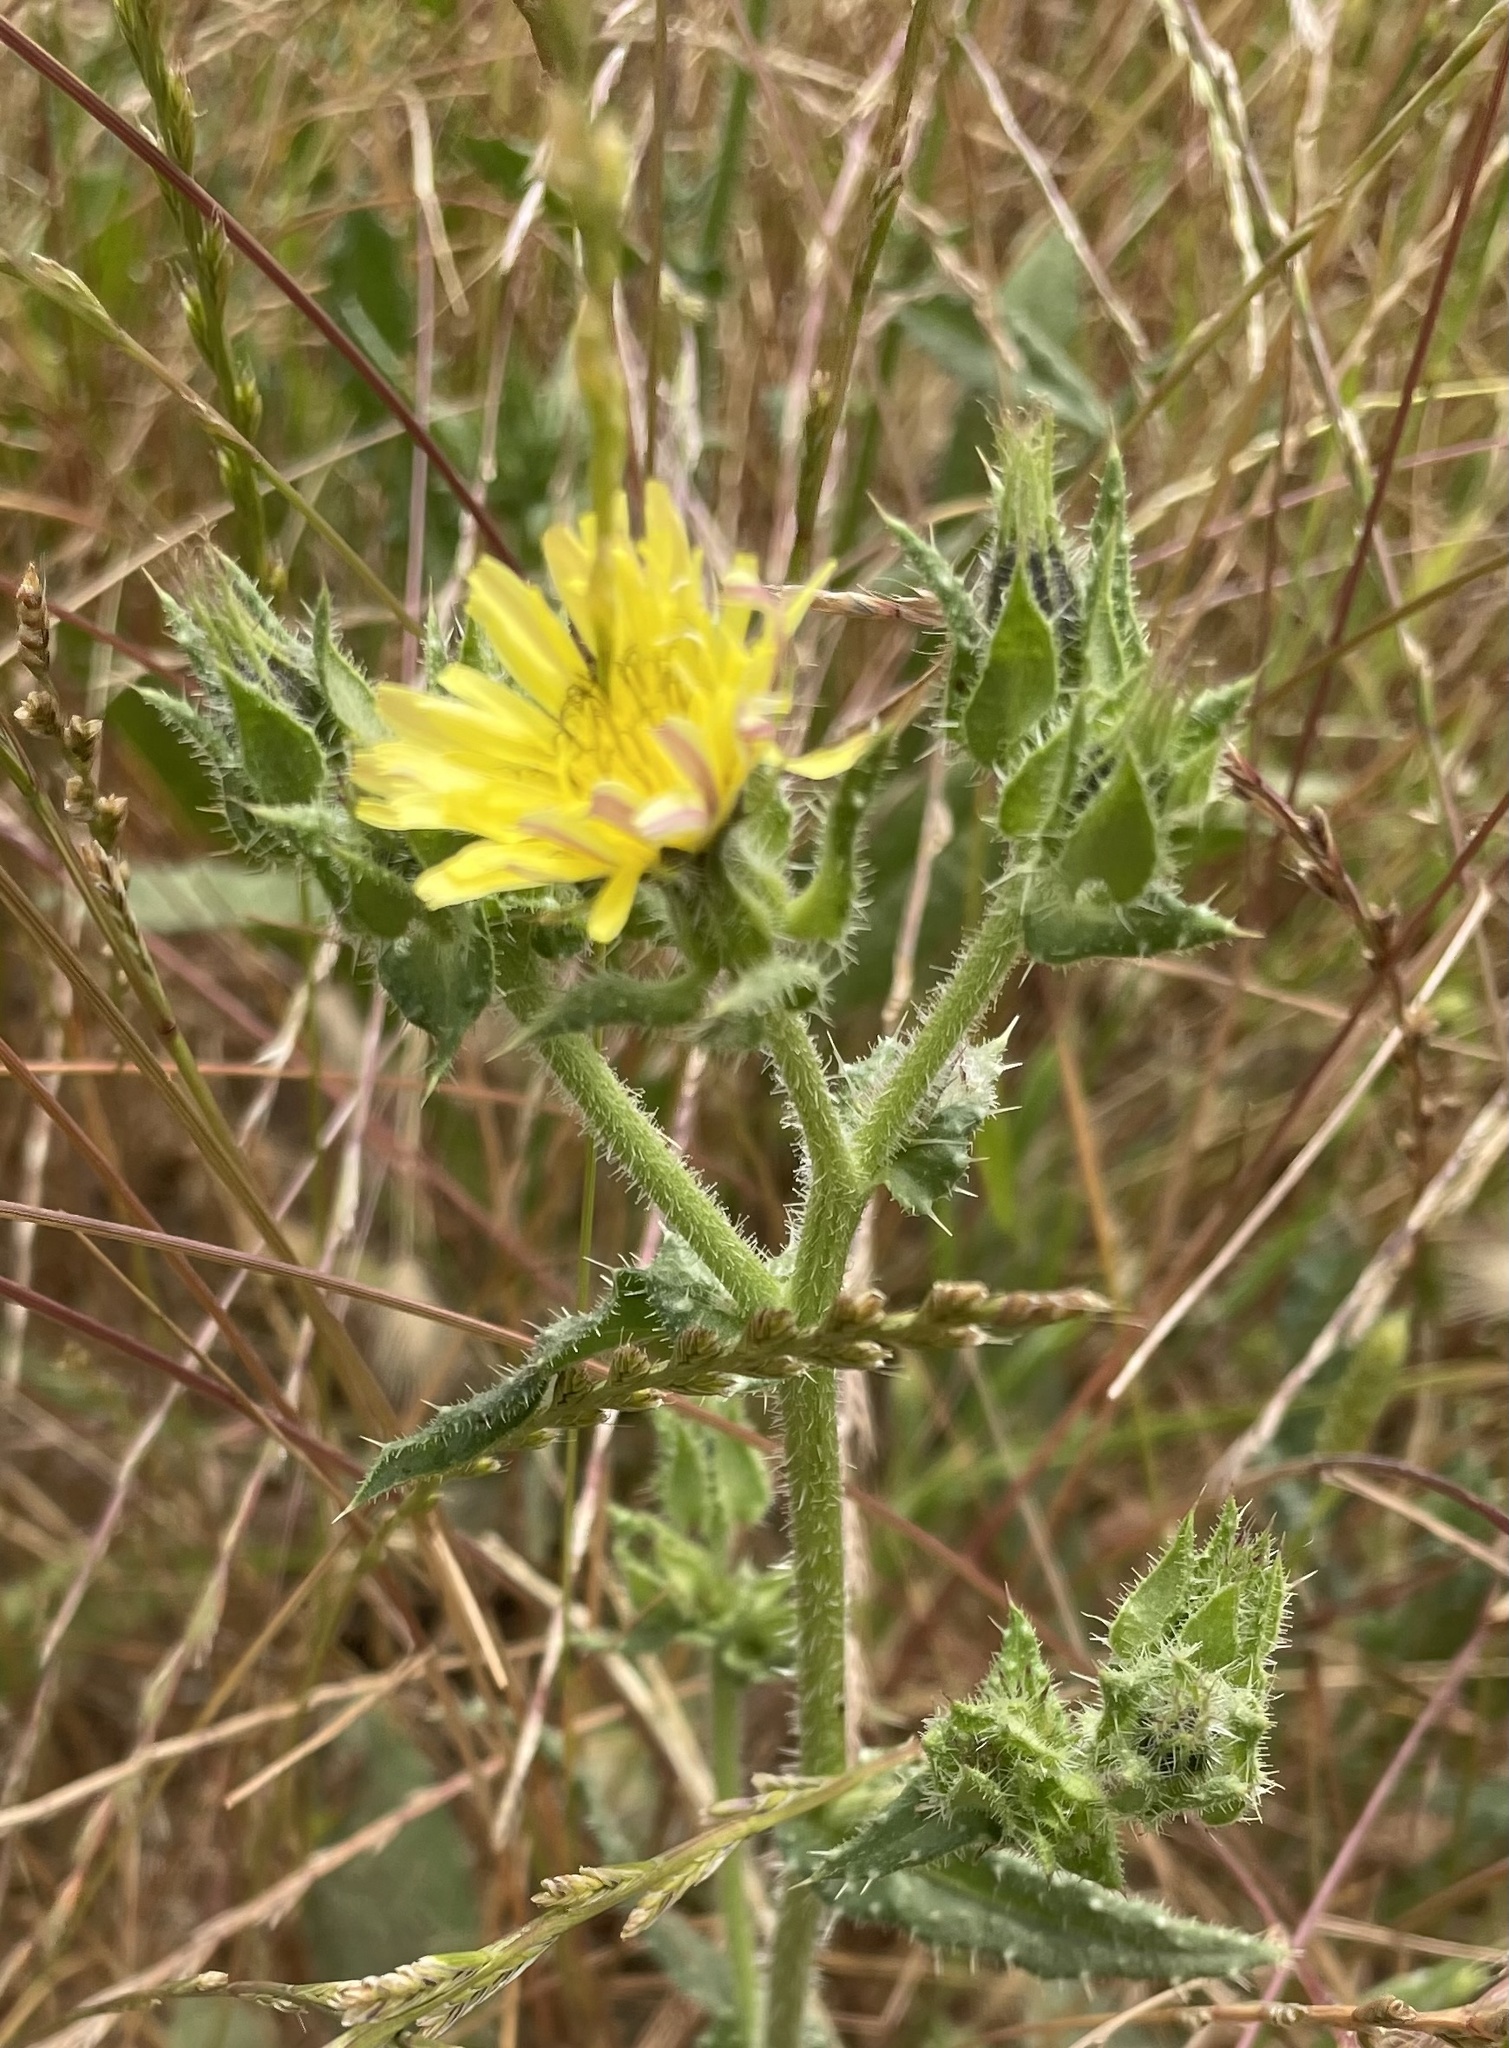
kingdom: Plantae
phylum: Tracheophyta
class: Magnoliopsida
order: Asterales
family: Asteraceae
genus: Helminthotheca
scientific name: Helminthotheca echioides
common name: Ox-tongue
